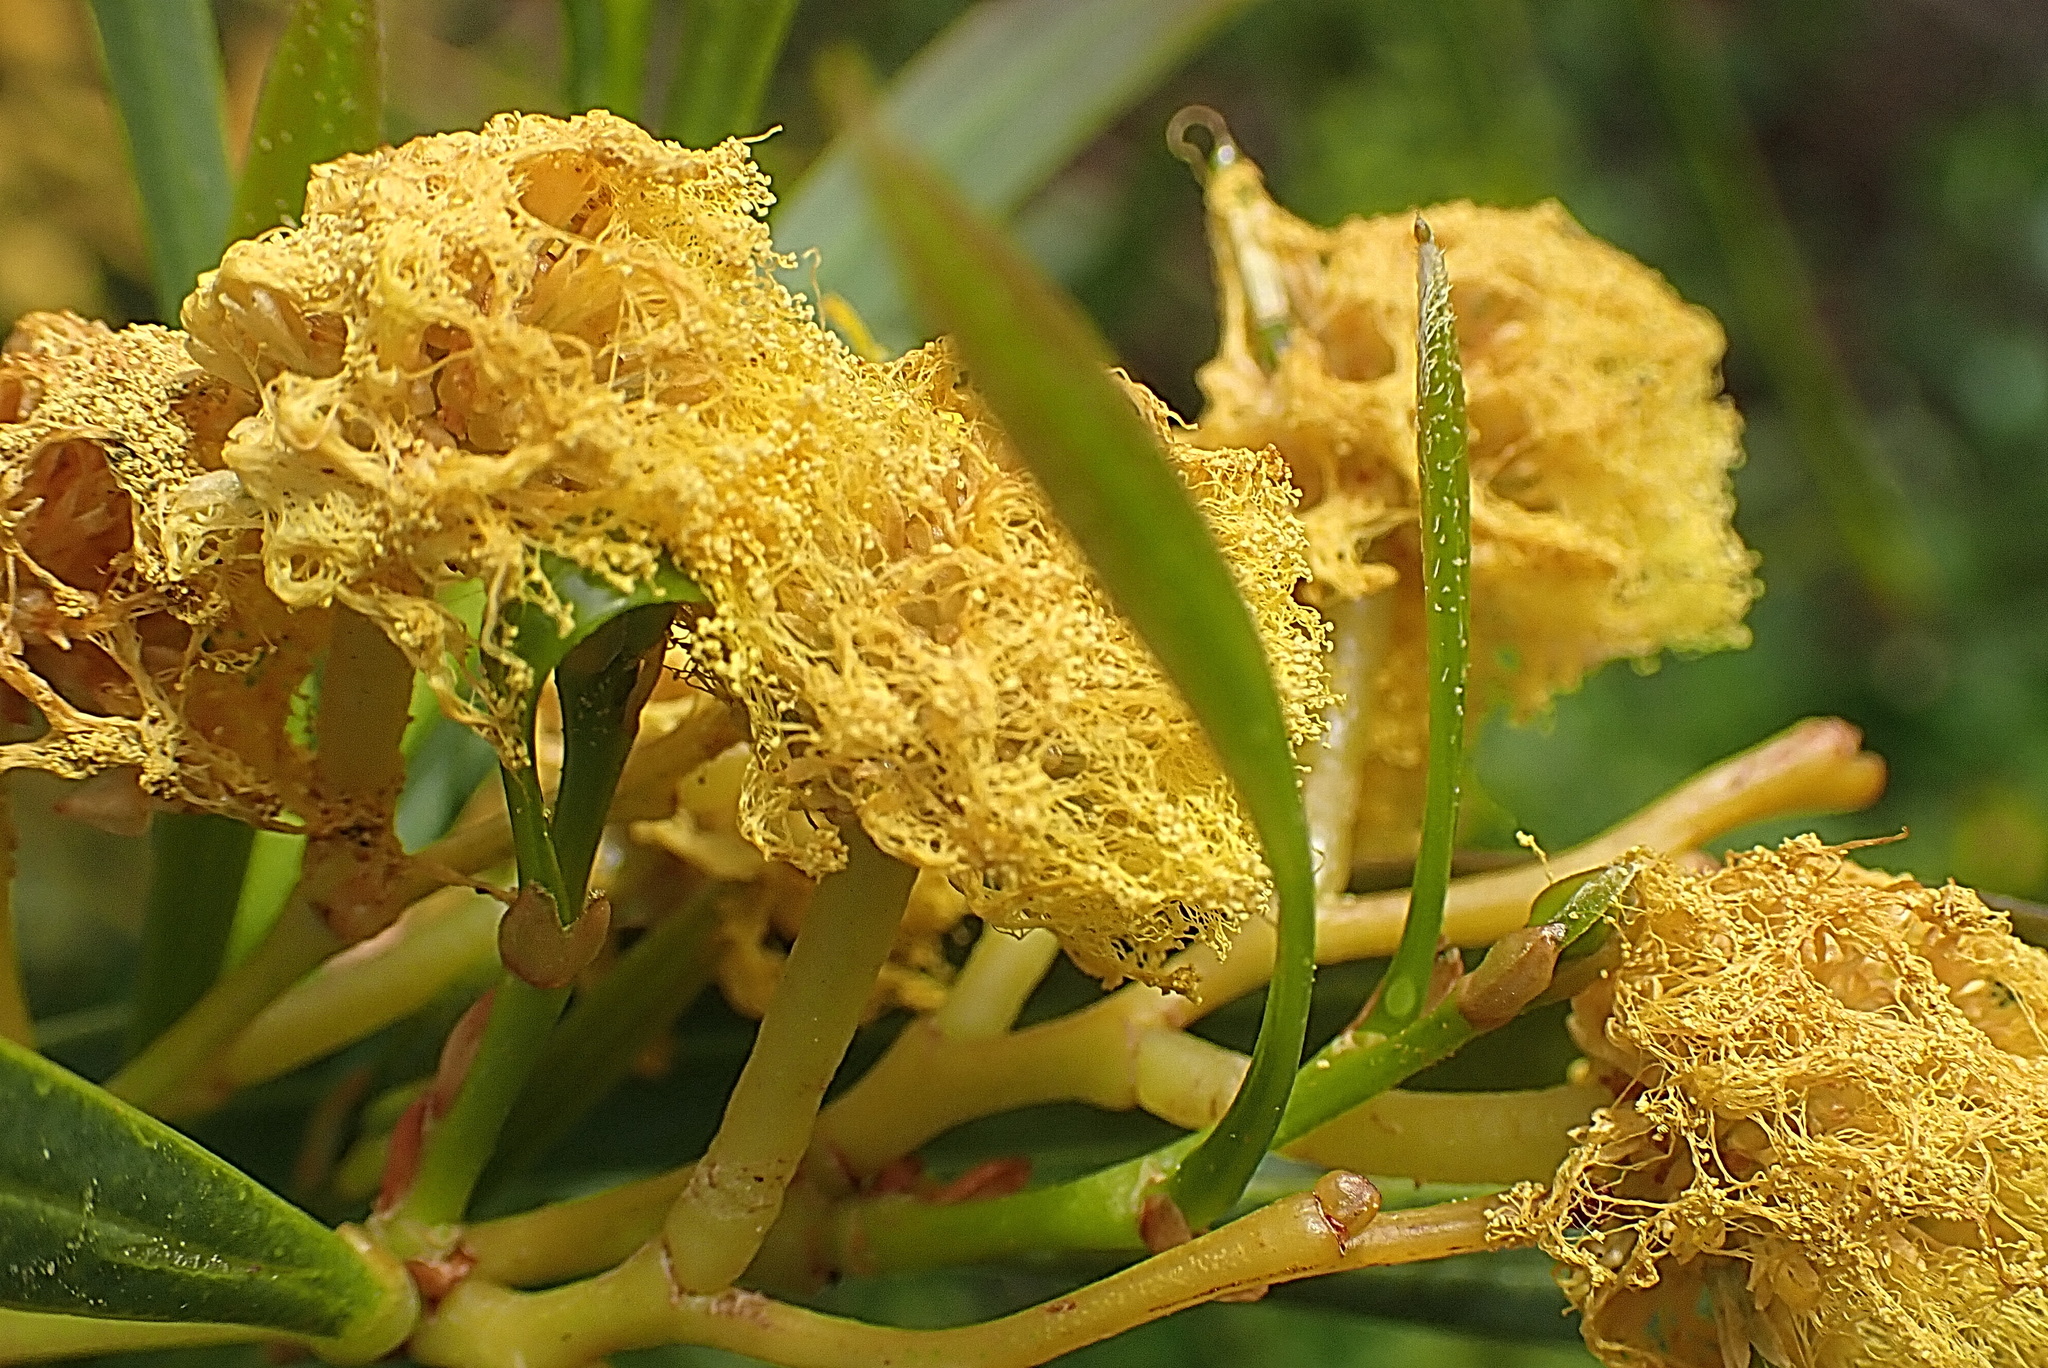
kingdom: Plantae
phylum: Tracheophyta
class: Magnoliopsida
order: Fabales
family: Fabaceae
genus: Acacia
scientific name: Acacia saligna
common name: Orange wattle
